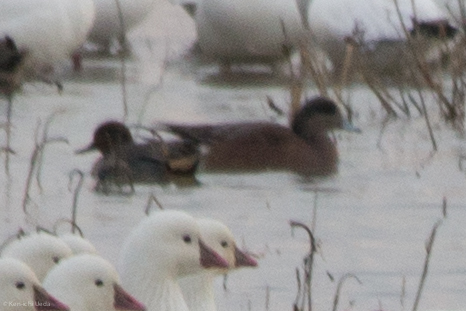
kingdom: Animalia
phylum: Chordata
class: Aves
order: Anseriformes
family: Anatidae
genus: Mareca
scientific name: Mareca americana
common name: American wigeon
